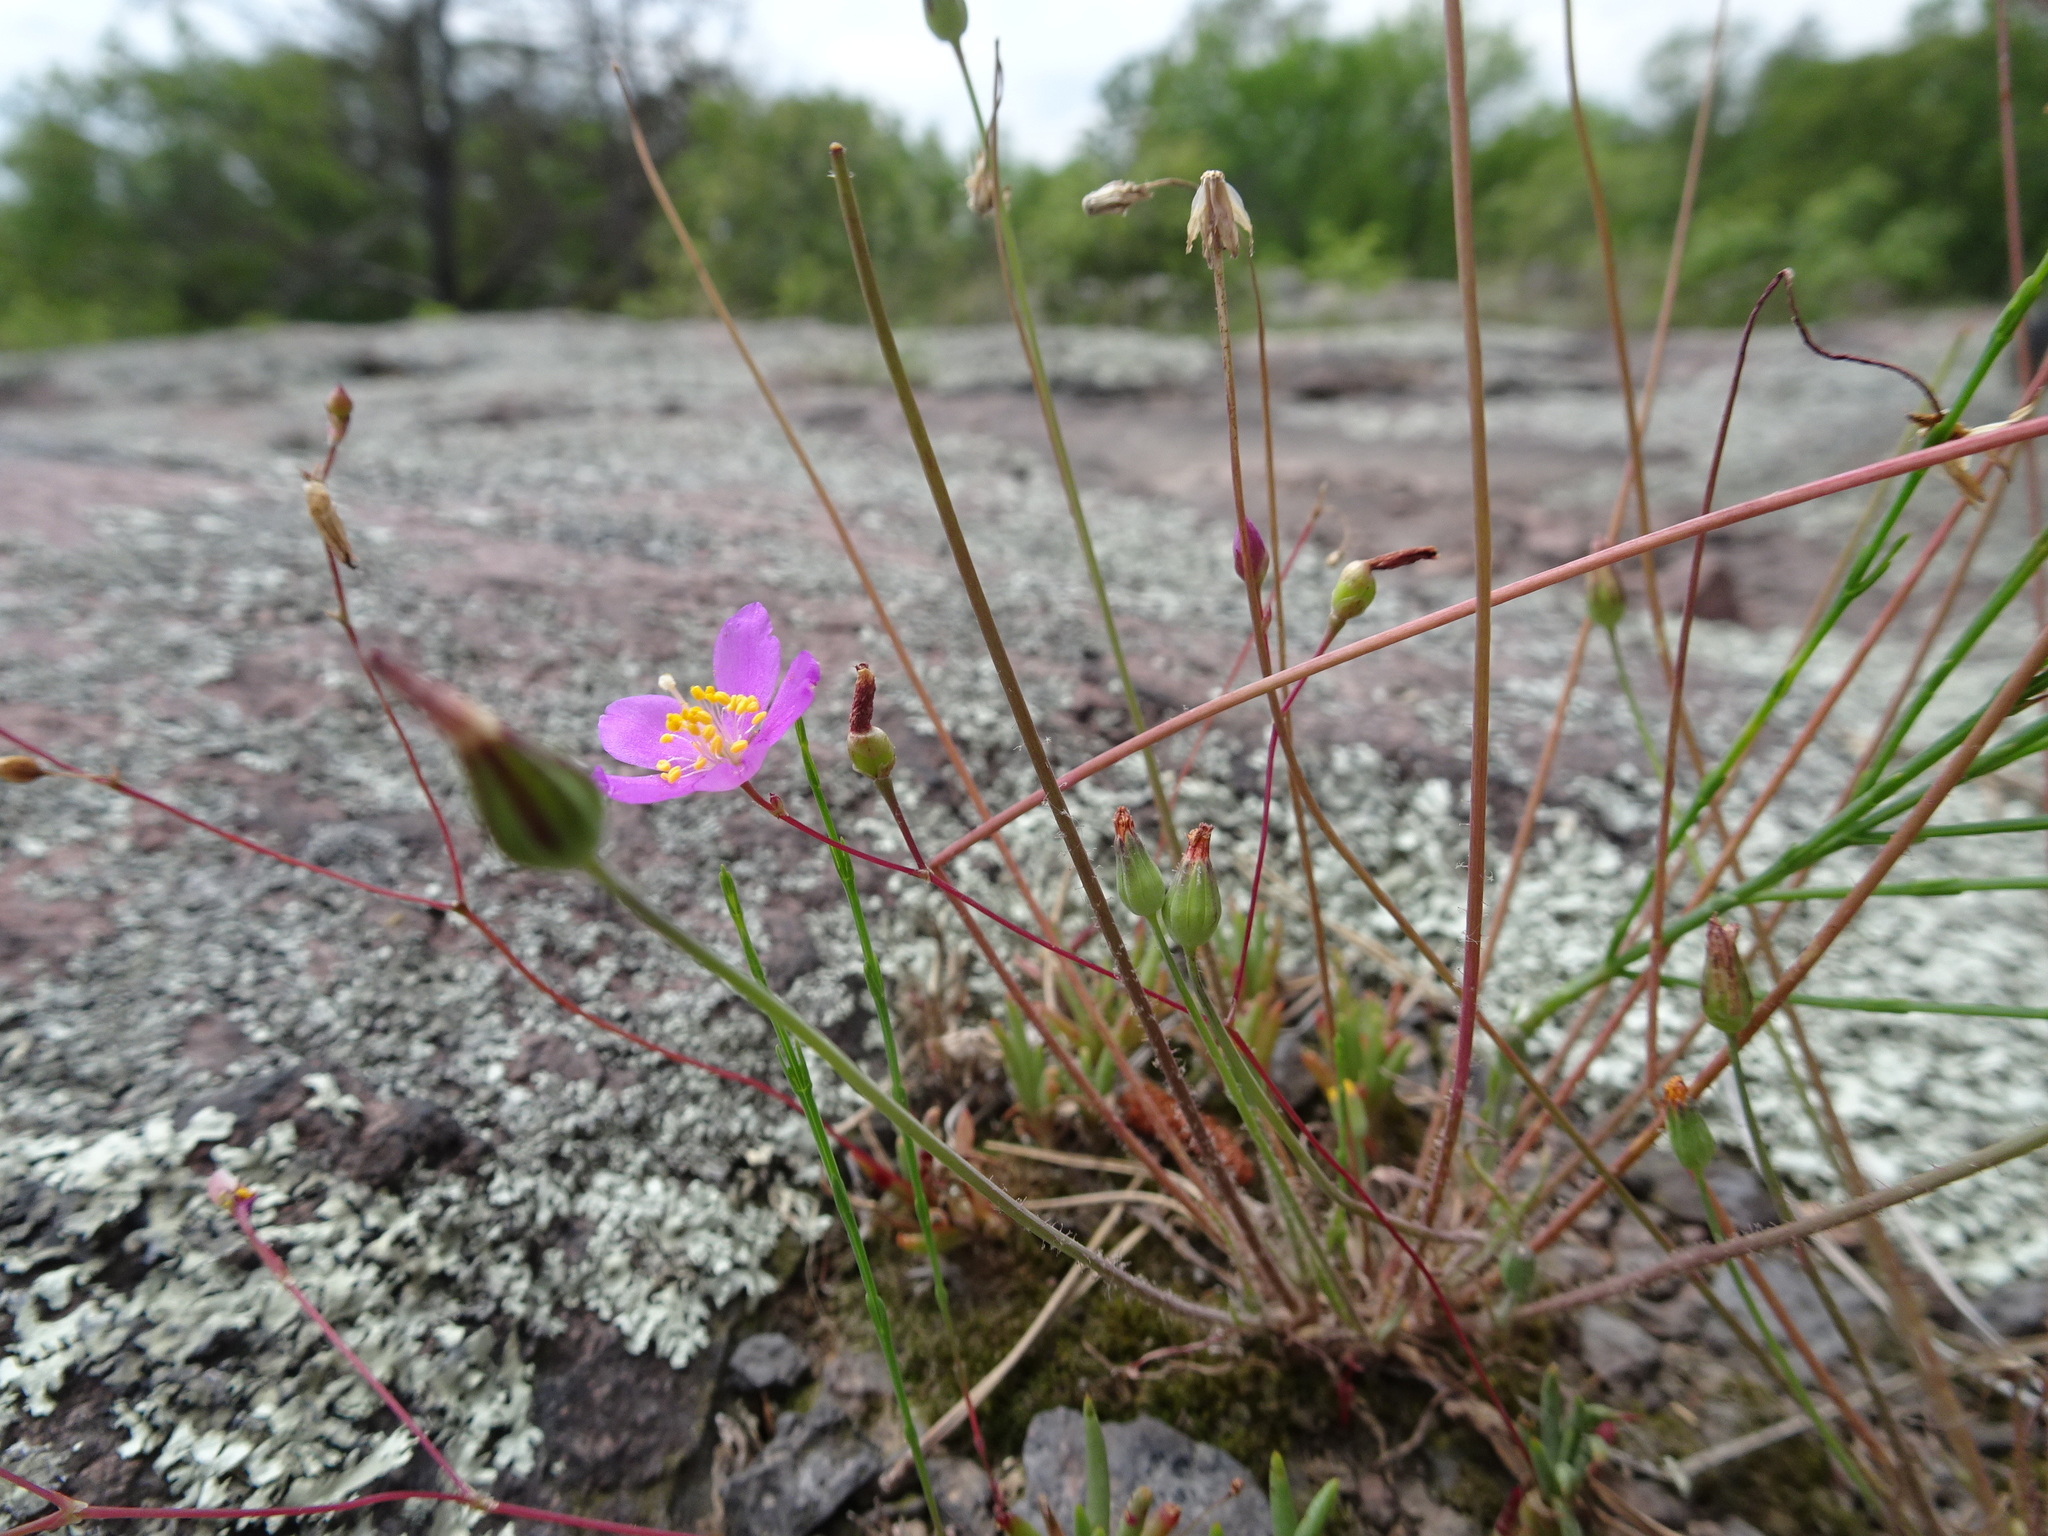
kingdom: Plantae
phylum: Tracheophyta
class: Magnoliopsida
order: Caryophyllales
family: Montiaceae
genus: Phemeranthus
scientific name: Phemeranthus calycinus
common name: Largeflower fameflower
